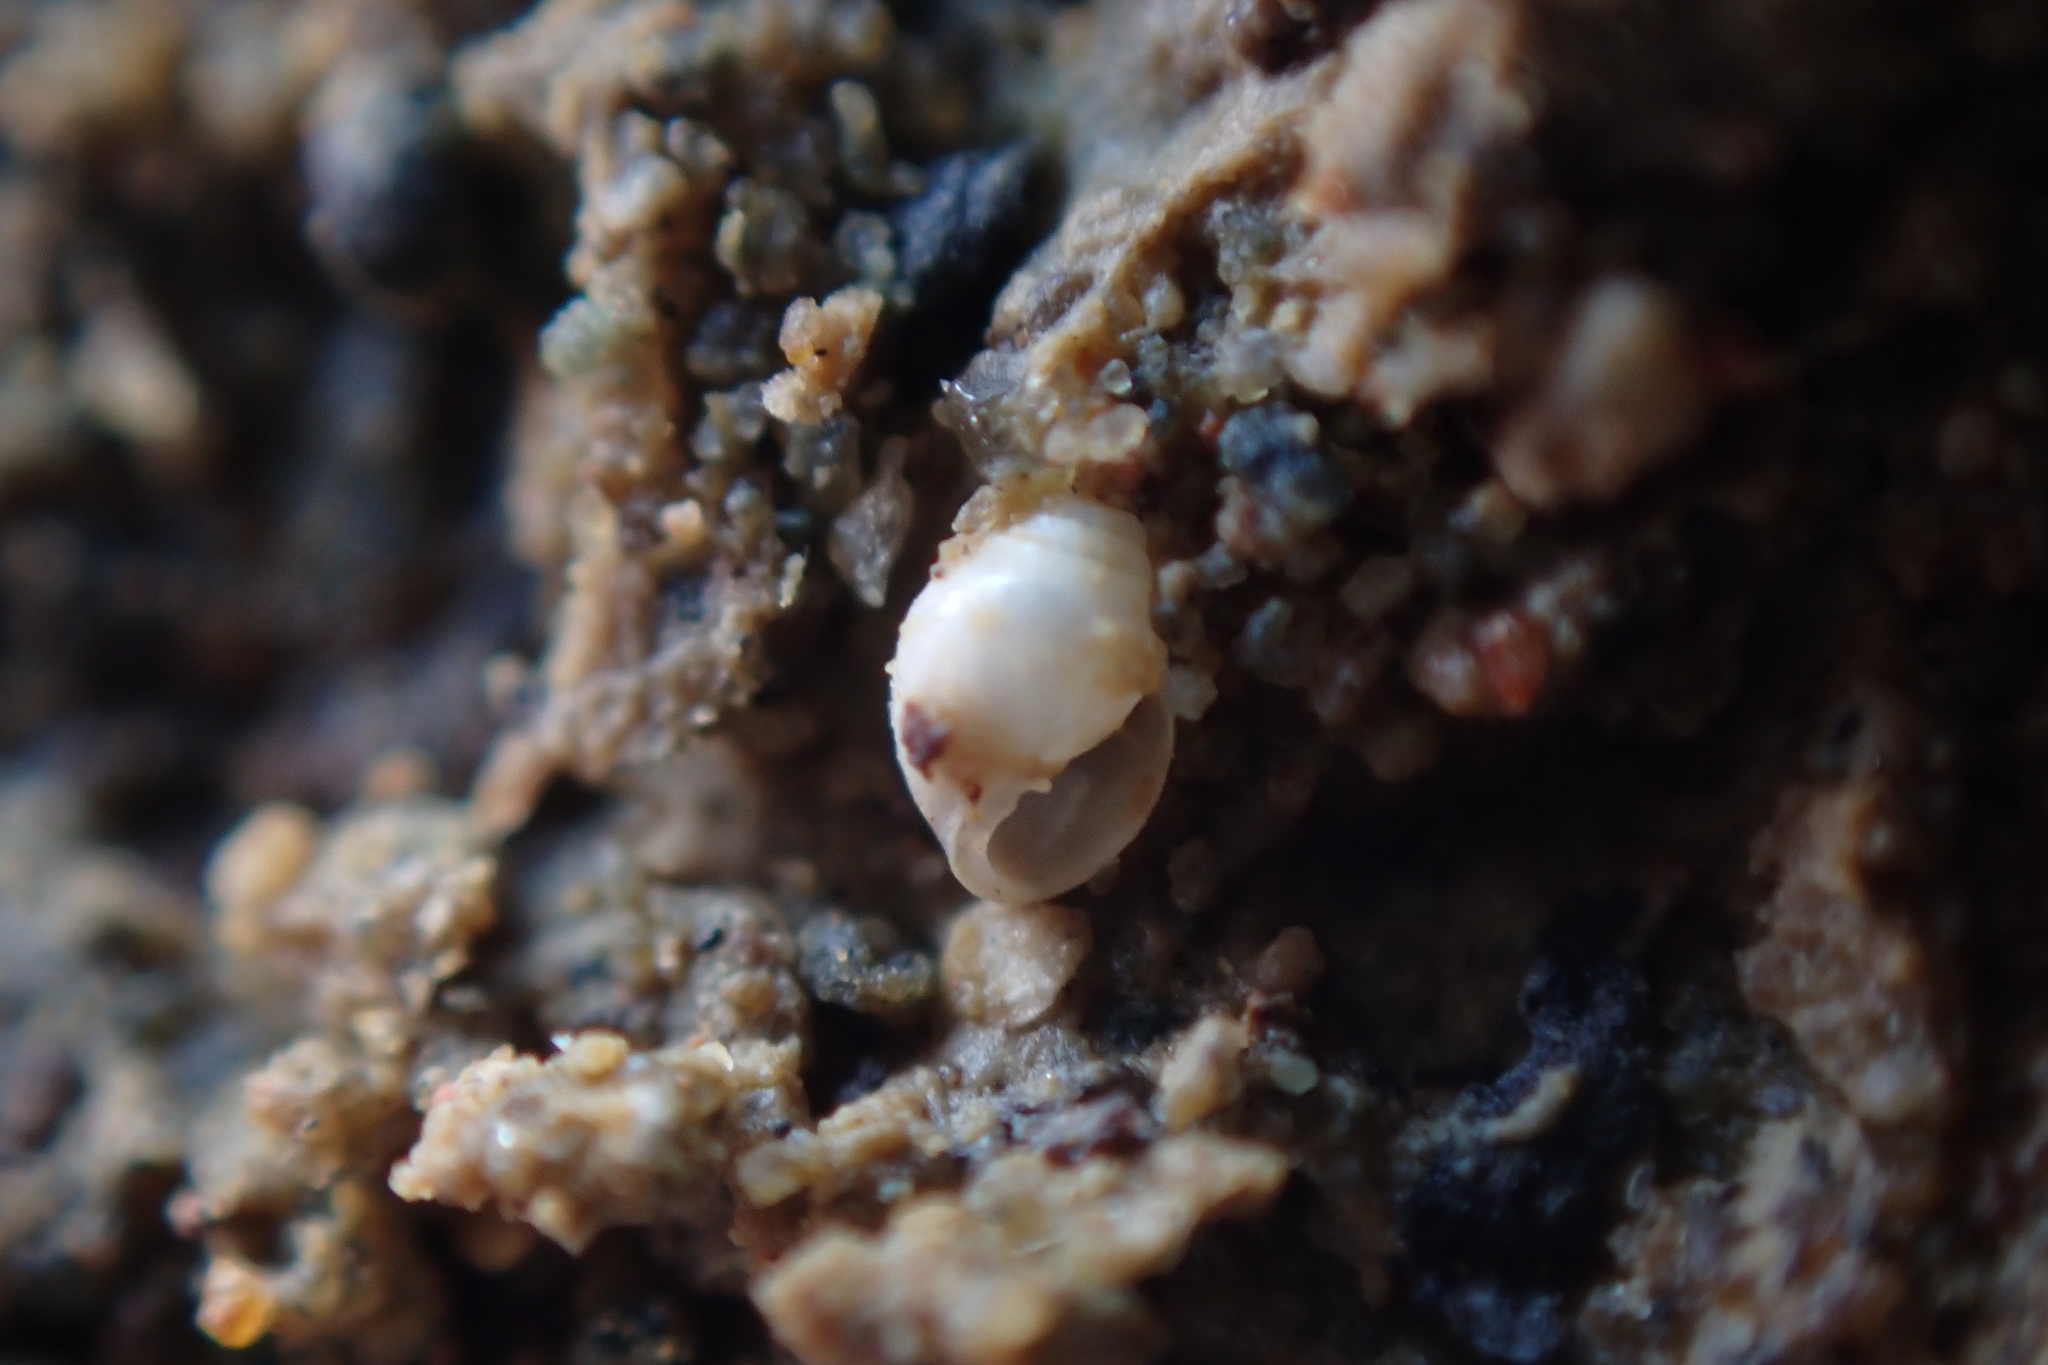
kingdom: Animalia
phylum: Mollusca
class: Gastropoda
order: Ellobiida
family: Ellobiidae
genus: Leuconopsis
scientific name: Leuconopsis obsoleta
